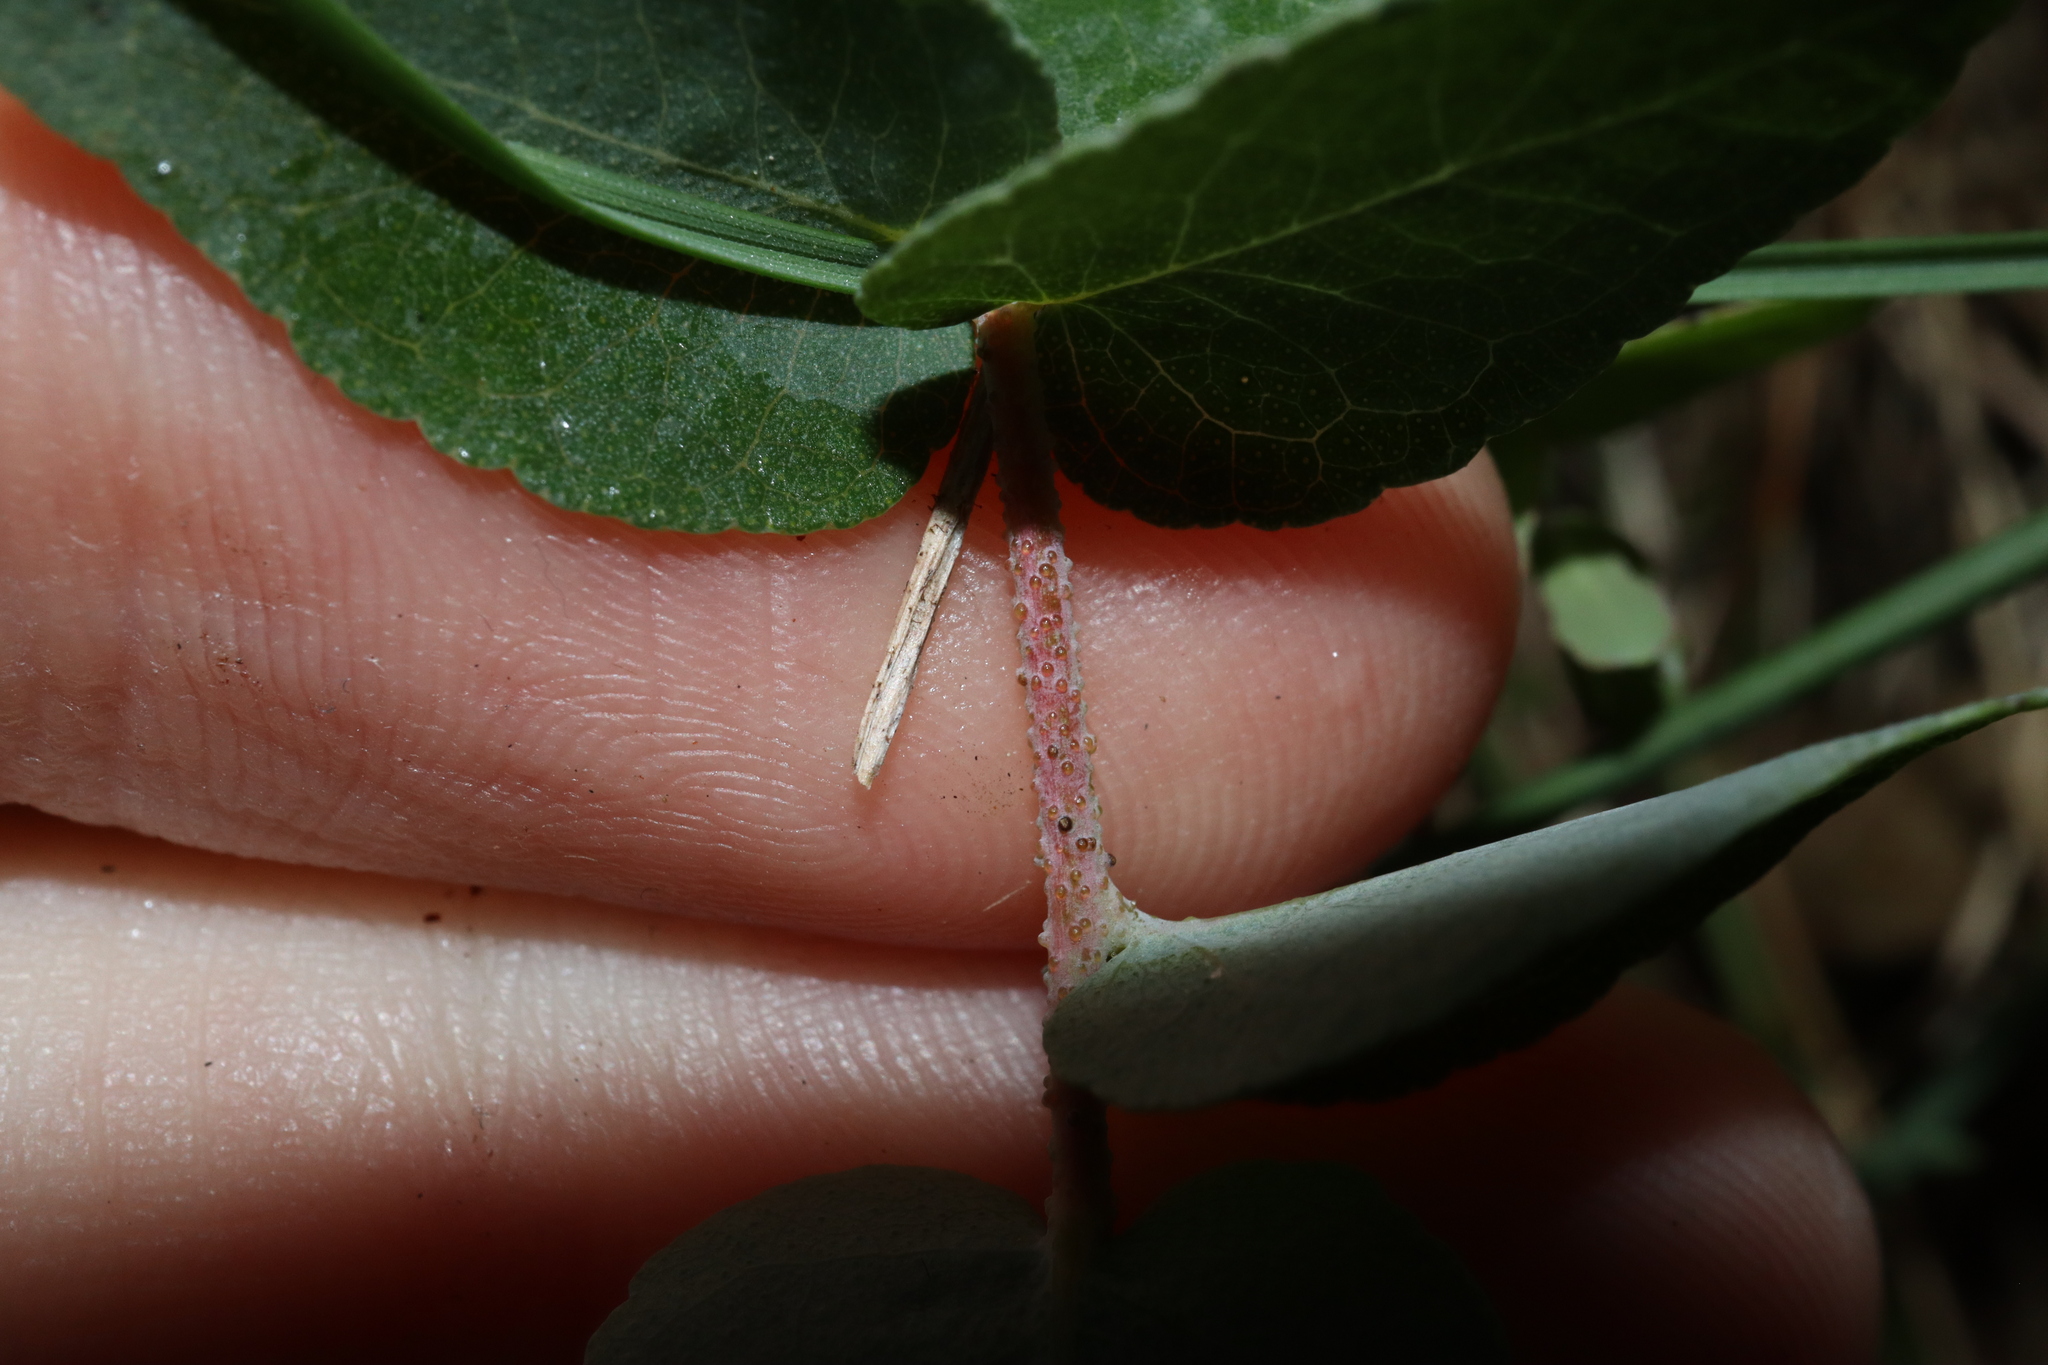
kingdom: Plantae
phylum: Tracheophyta
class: Magnoliopsida
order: Myrtales
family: Myrtaceae
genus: Eucalyptus
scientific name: Eucalyptus bridgesiana
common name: Applebox
